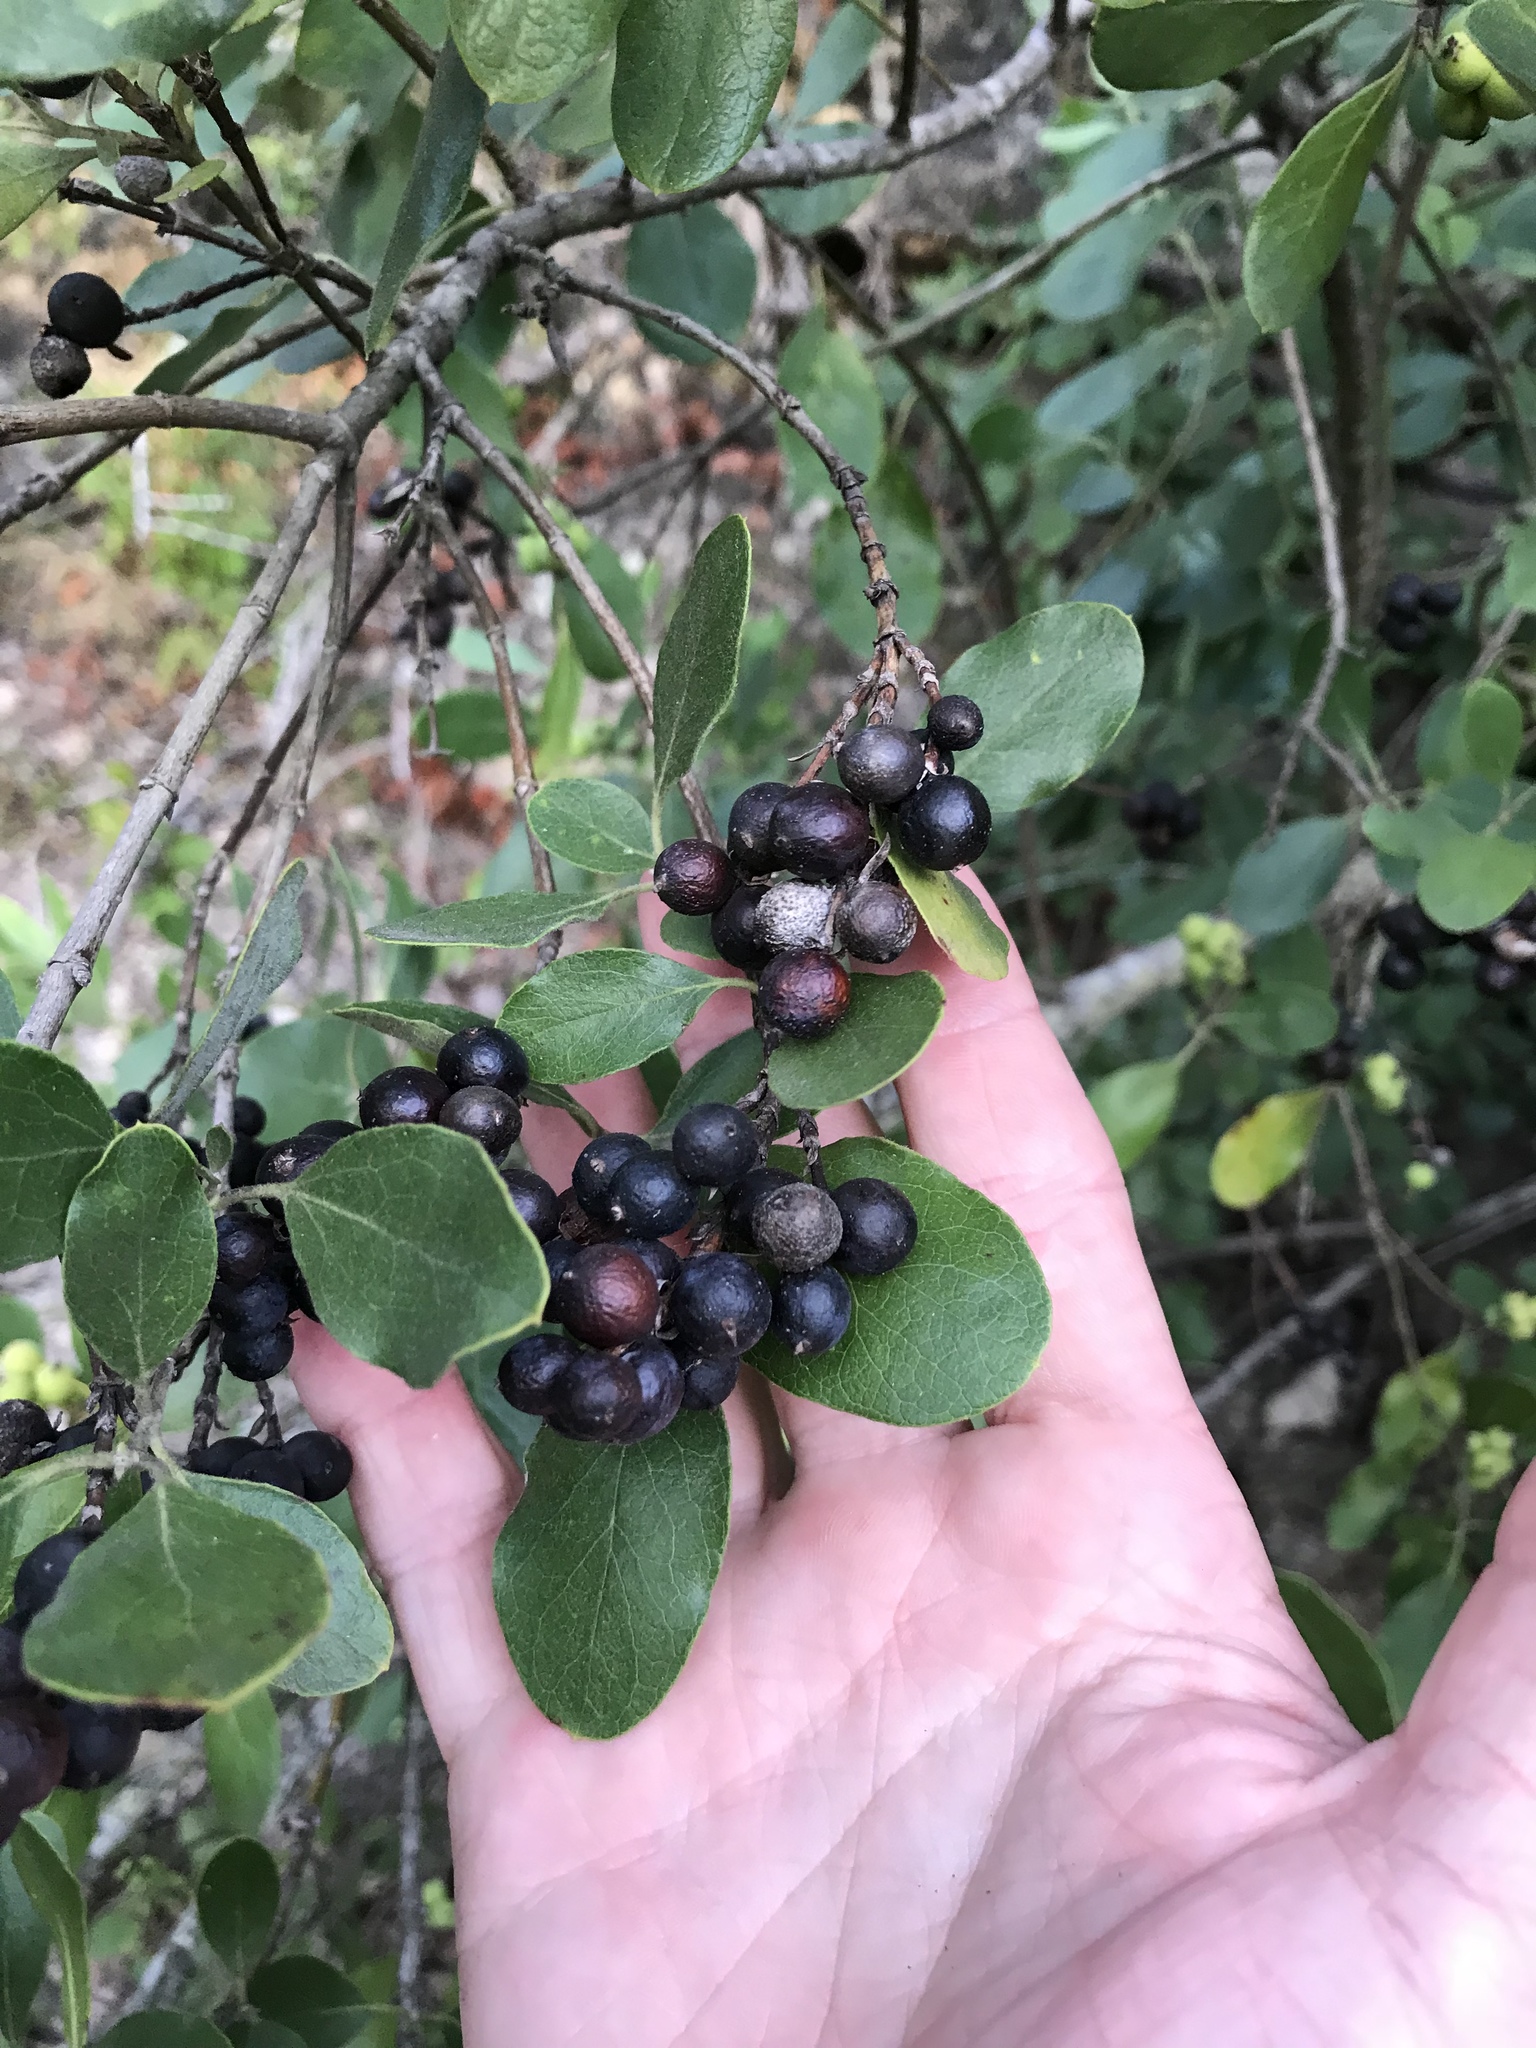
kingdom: Plantae
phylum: Tracheophyta
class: Magnoliopsida
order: Garryales
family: Garryaceae
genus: Garrya
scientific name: Garrya lindheimeri
